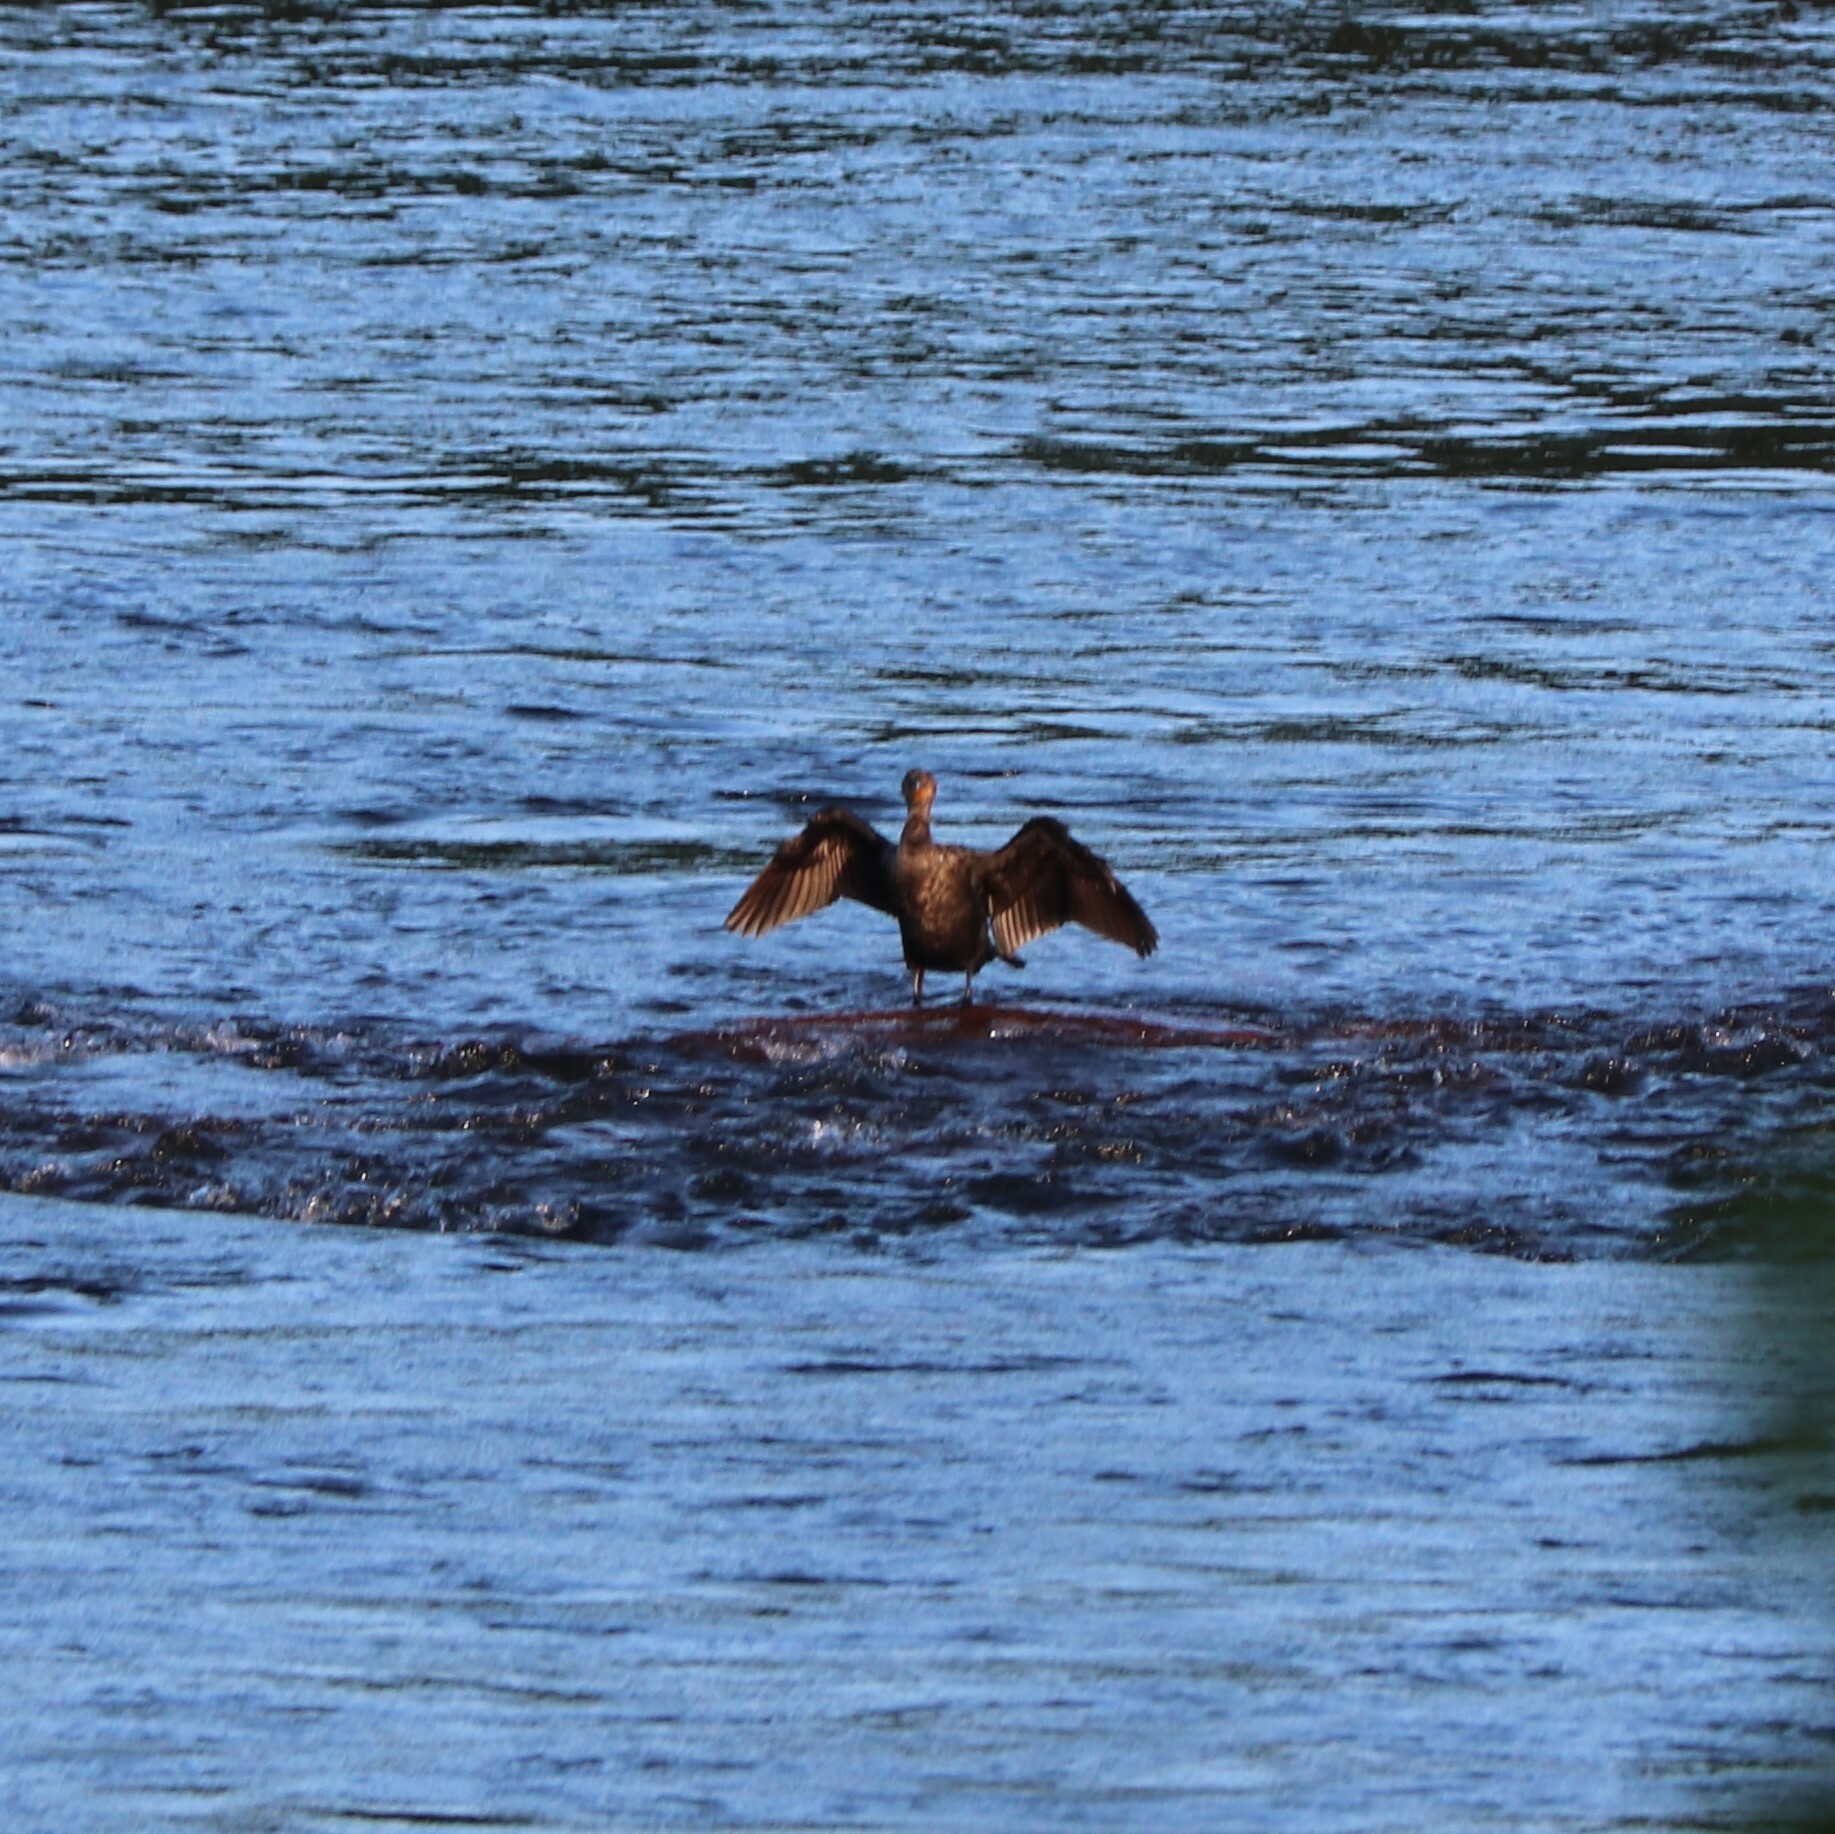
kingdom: Animalia
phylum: Chordata
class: Aves
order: Suliformes
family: Phalacrocoracidae
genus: Phalacrocorax
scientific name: Phalacrocorax auritus
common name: Double-crested cormorant
